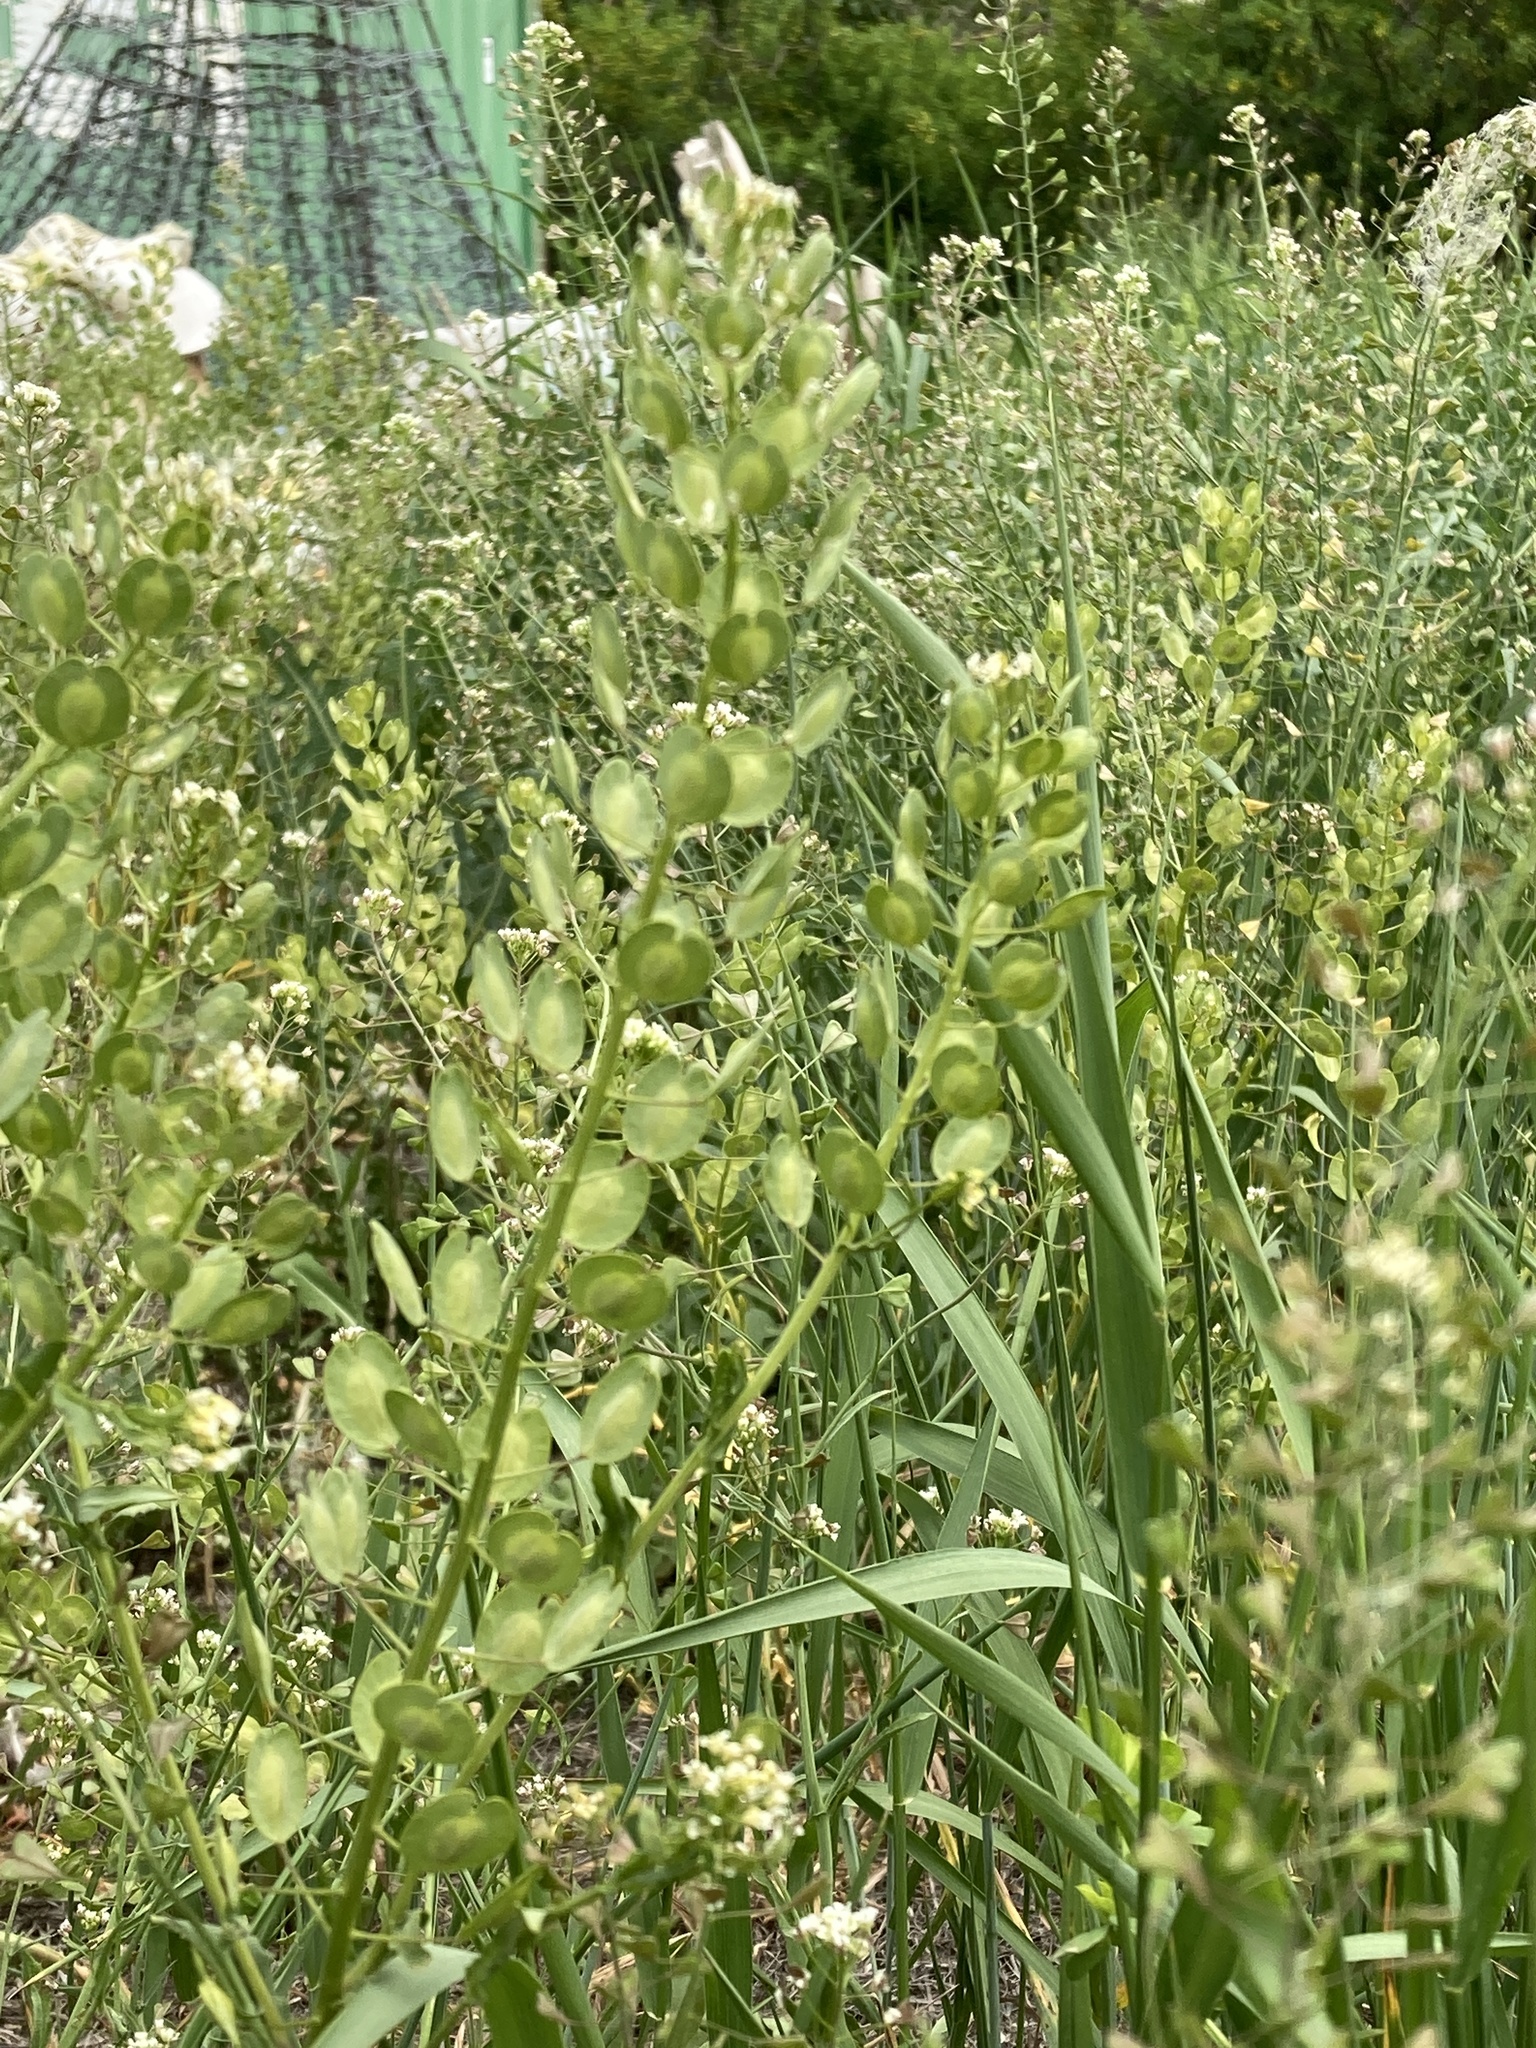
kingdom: Plantae
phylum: Tracheophyta
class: Magnoliopsida
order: Brassicales
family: Brassicaceae
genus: Thlaspi
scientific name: Thlaspi arvense
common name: Field pennycress
